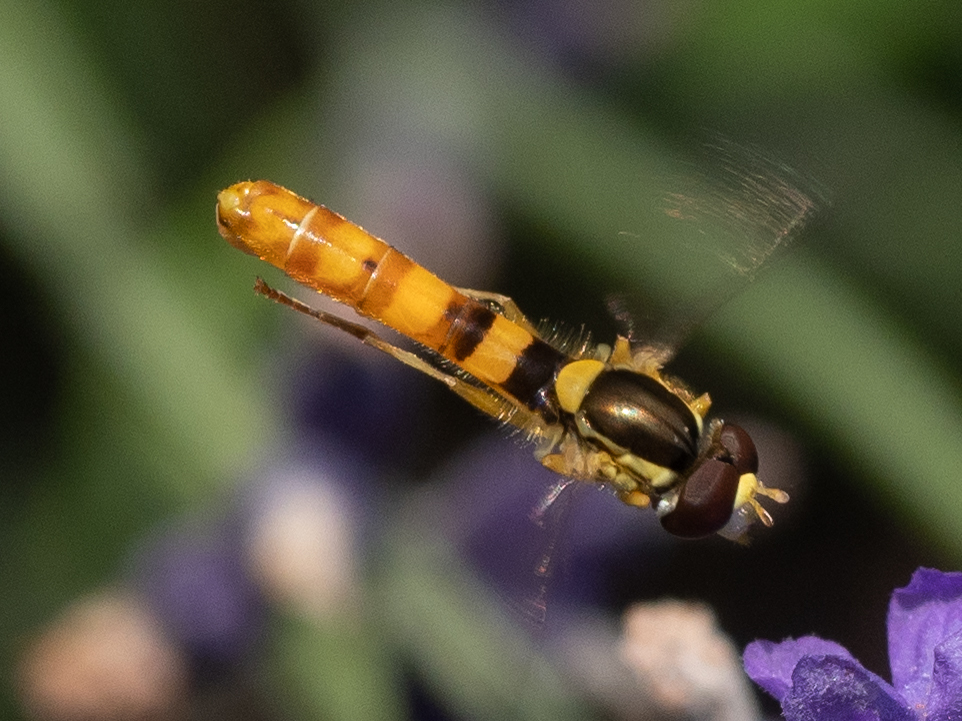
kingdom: Animalia
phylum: Arthropoda
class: Insecta
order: Diptera
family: Syrphidae
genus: Sphaerophoria
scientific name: Sphaerophoria scripta
